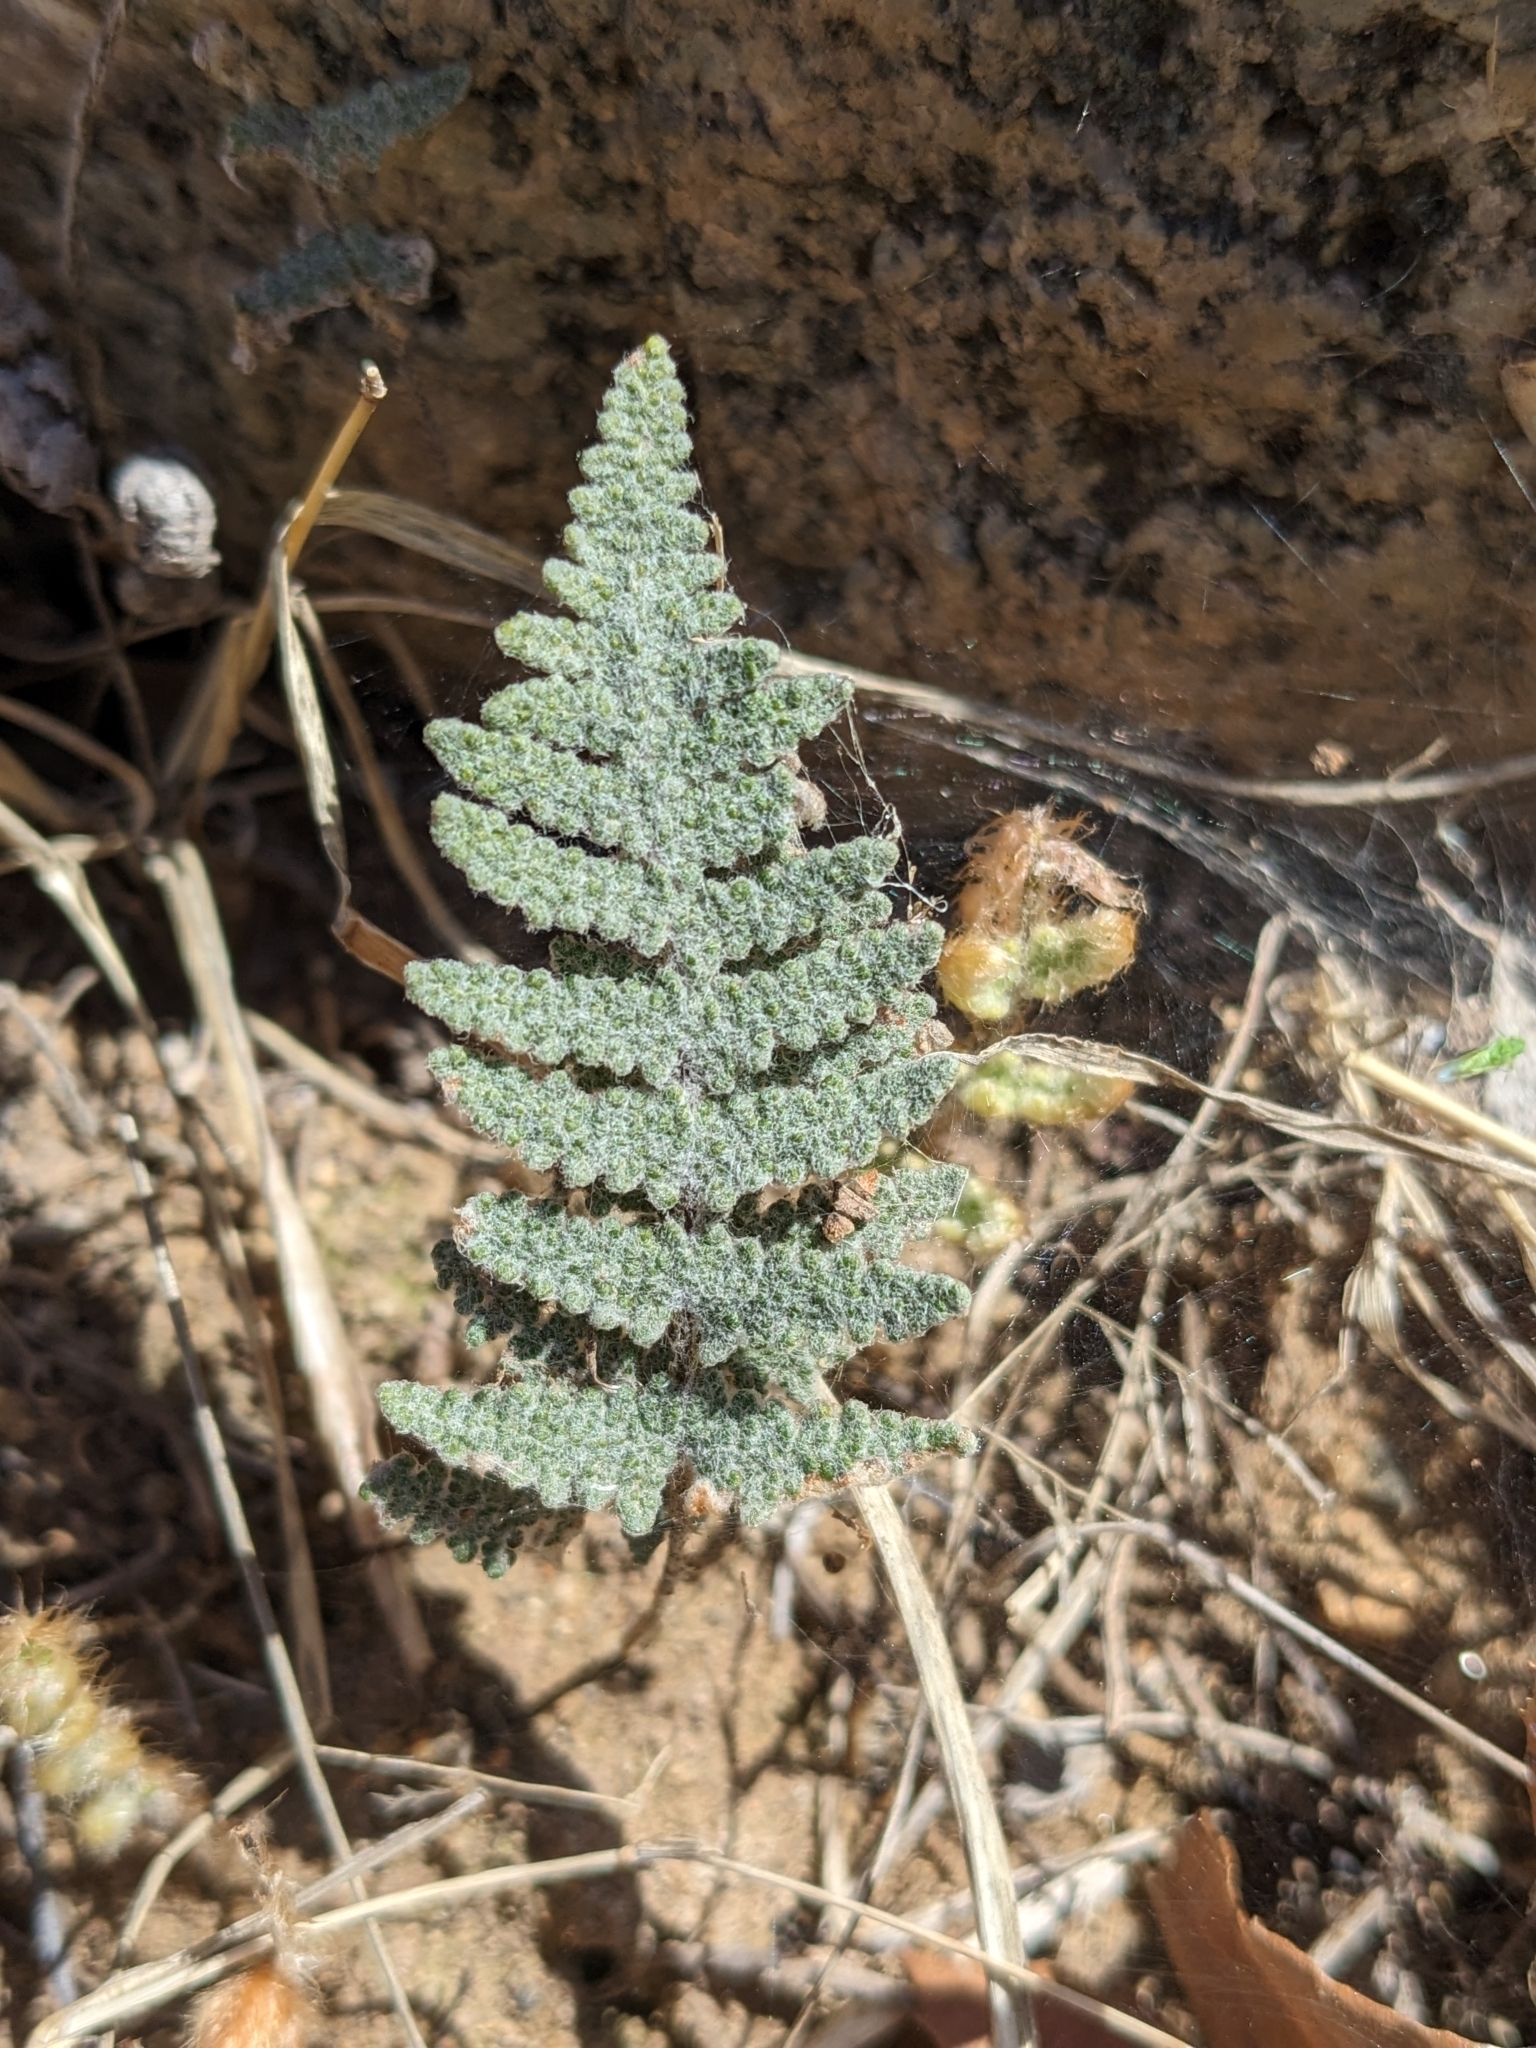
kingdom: Plantae
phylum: Tracheophyta
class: Polypodiopsida
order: Polypodiales
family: Pteridaceae
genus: Myriopteris
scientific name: Myriopteris lindheimeri
